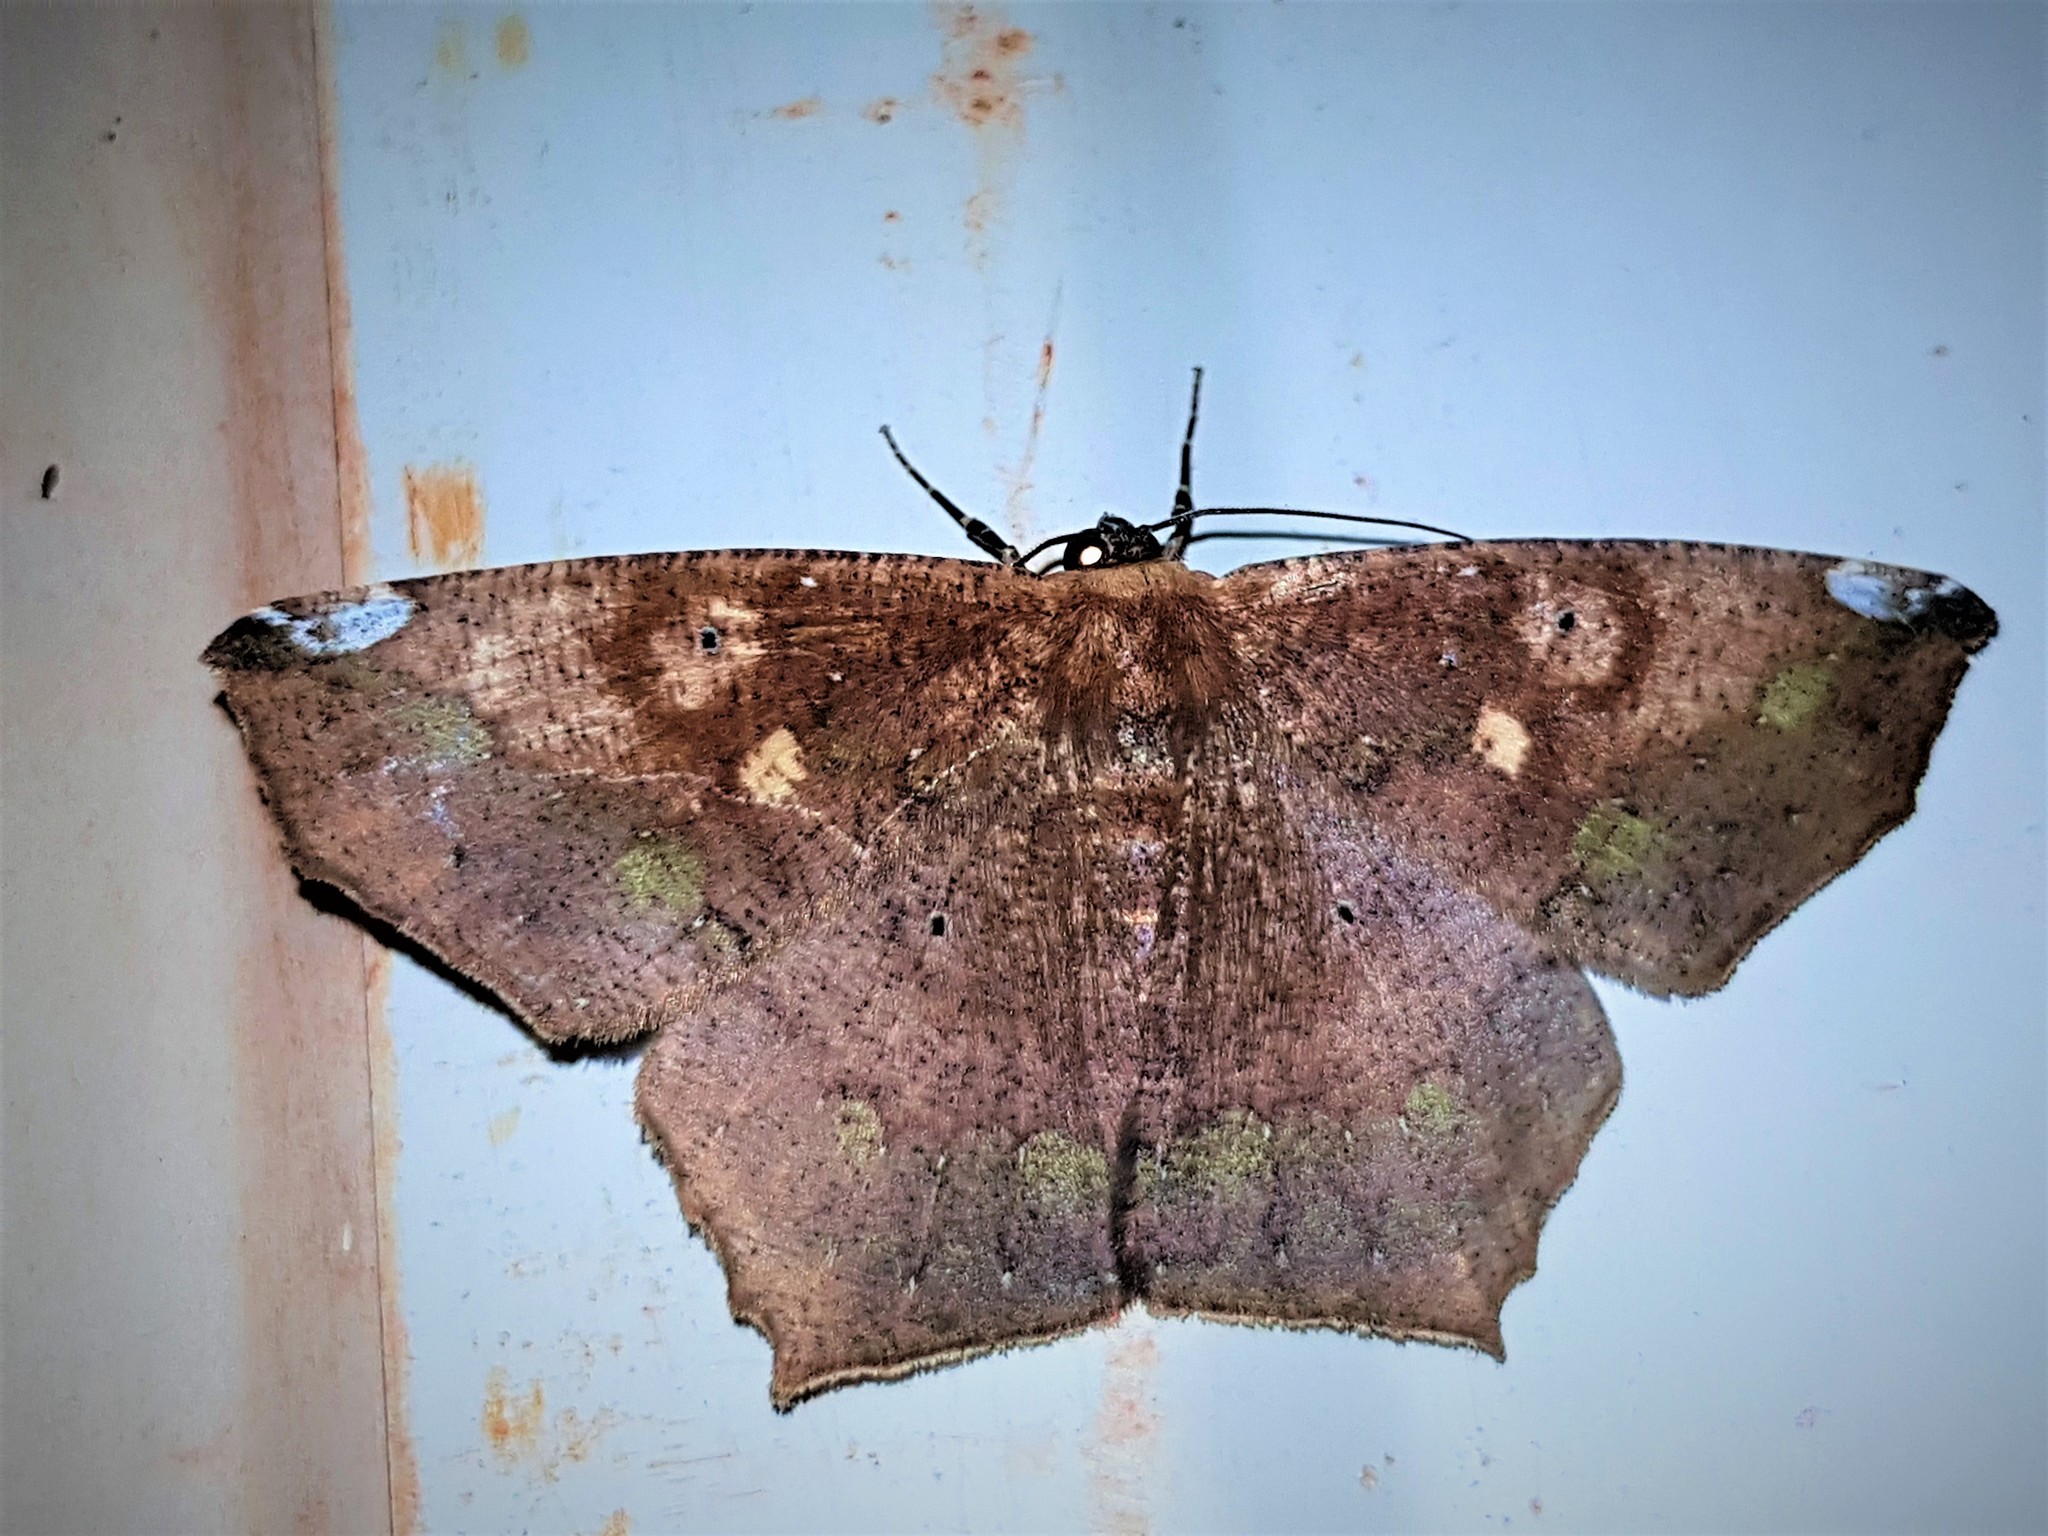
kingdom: Animalia
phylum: Arthropoda
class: Insecta
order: Lepidoptera
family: Geometridae
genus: Paragonia
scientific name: Paragonia cruraria
